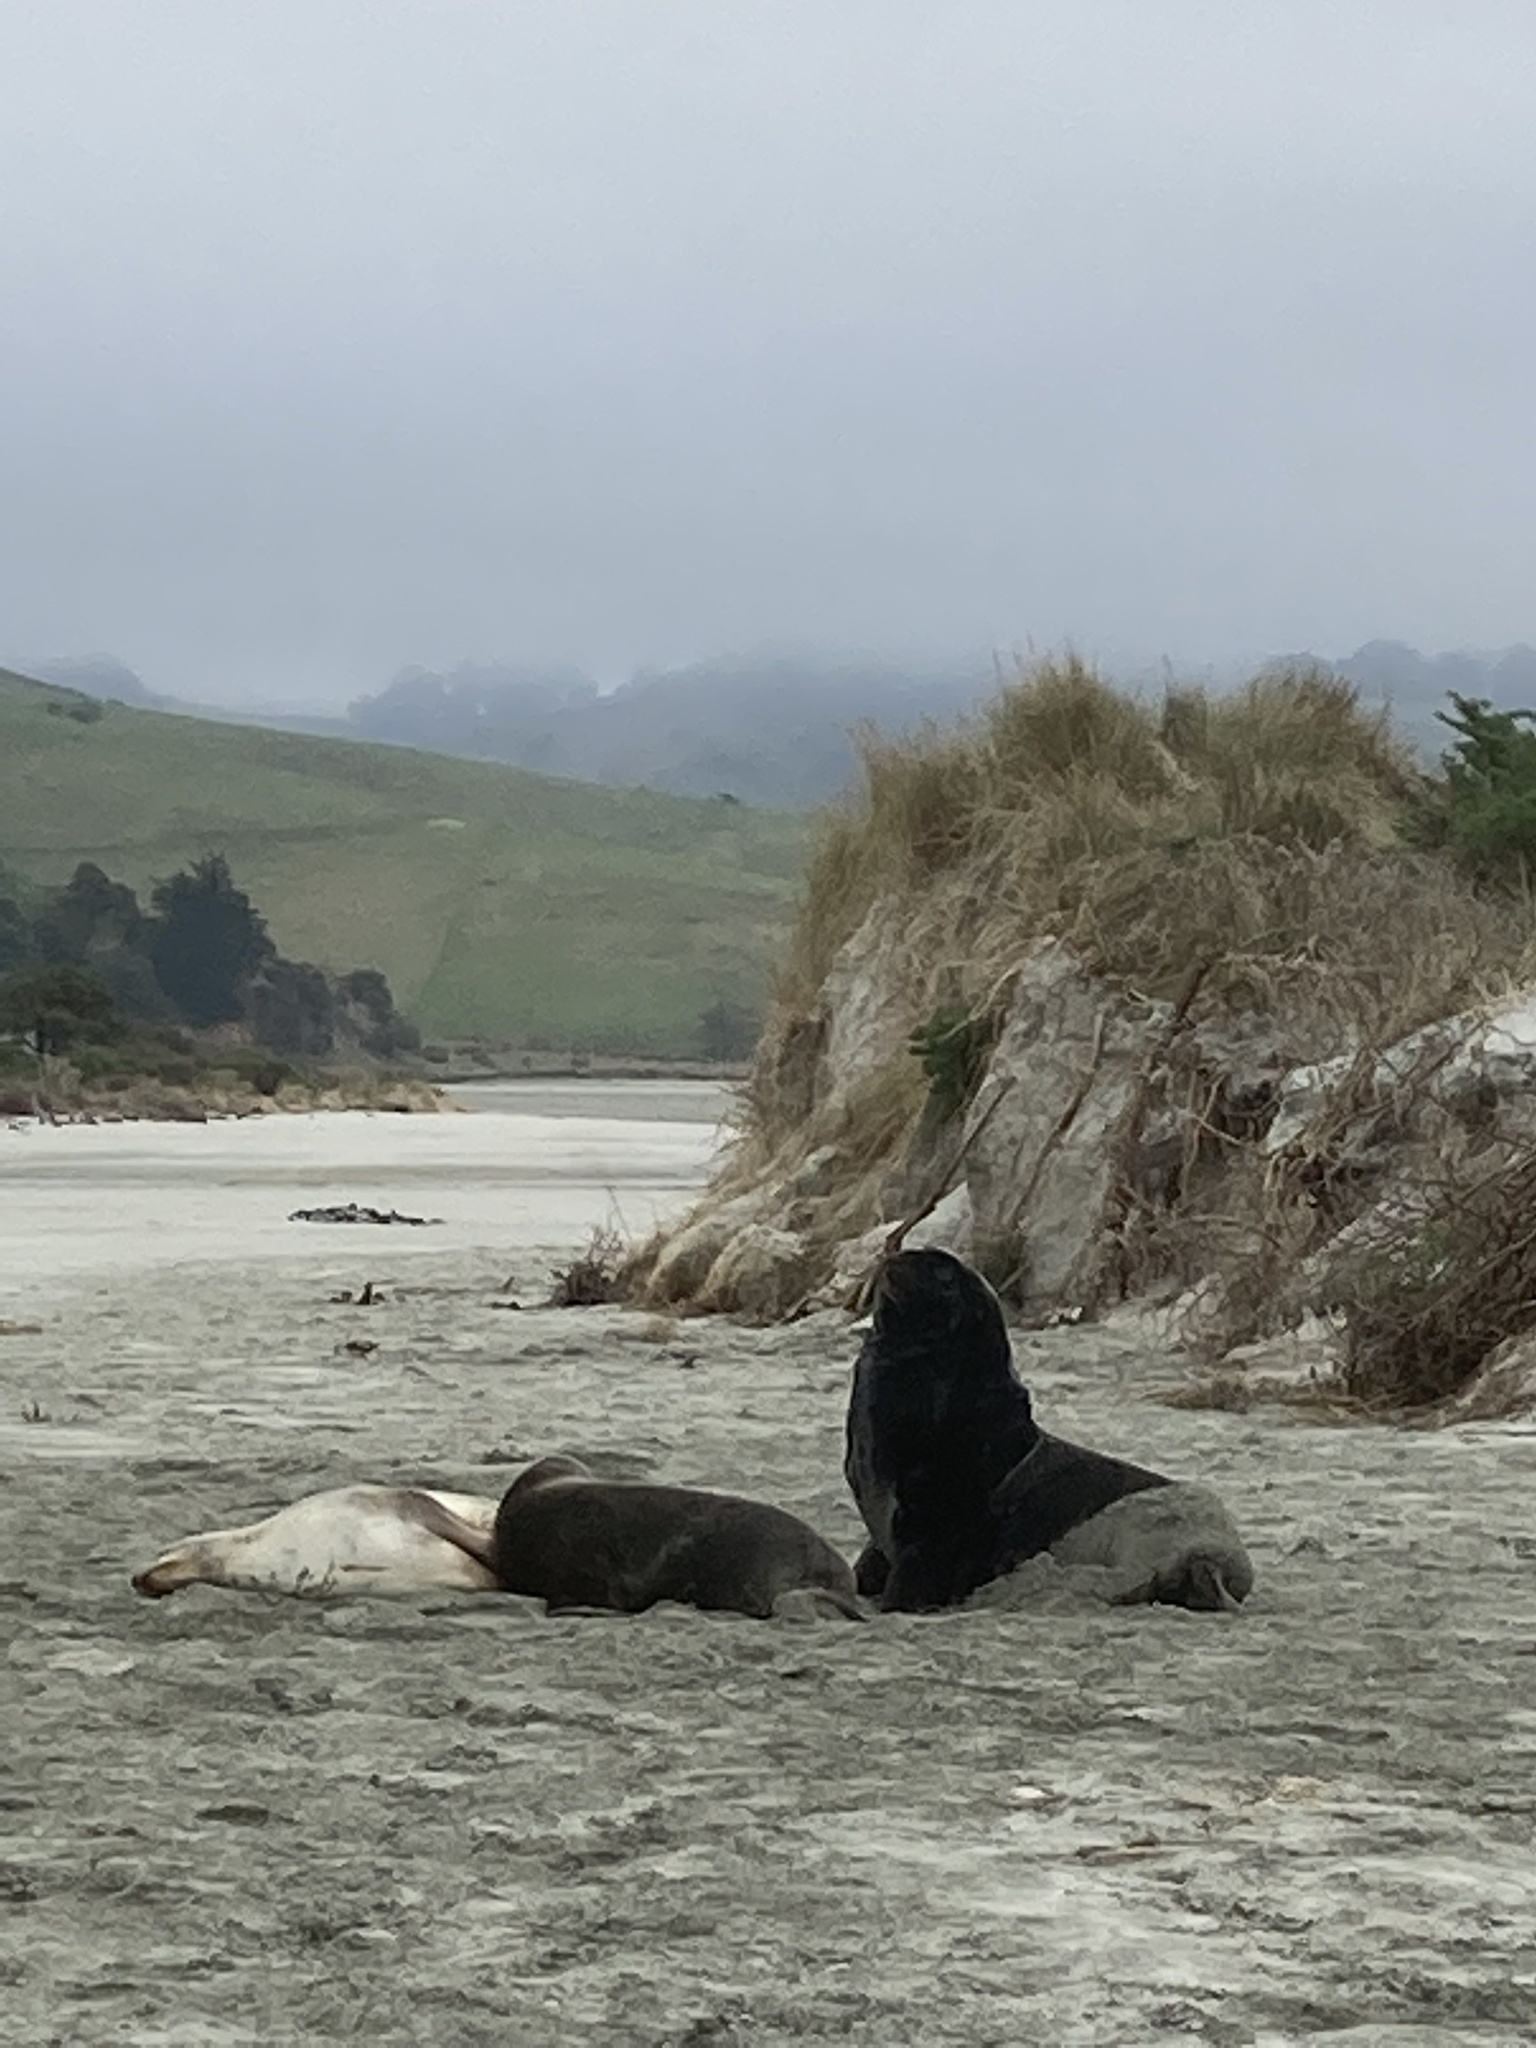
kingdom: Animalia
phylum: Chordata
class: Mammalia
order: Carnivora
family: Otariidae
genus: Phocarctos
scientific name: Phocarctos hookeri
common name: New zealand sea lion
